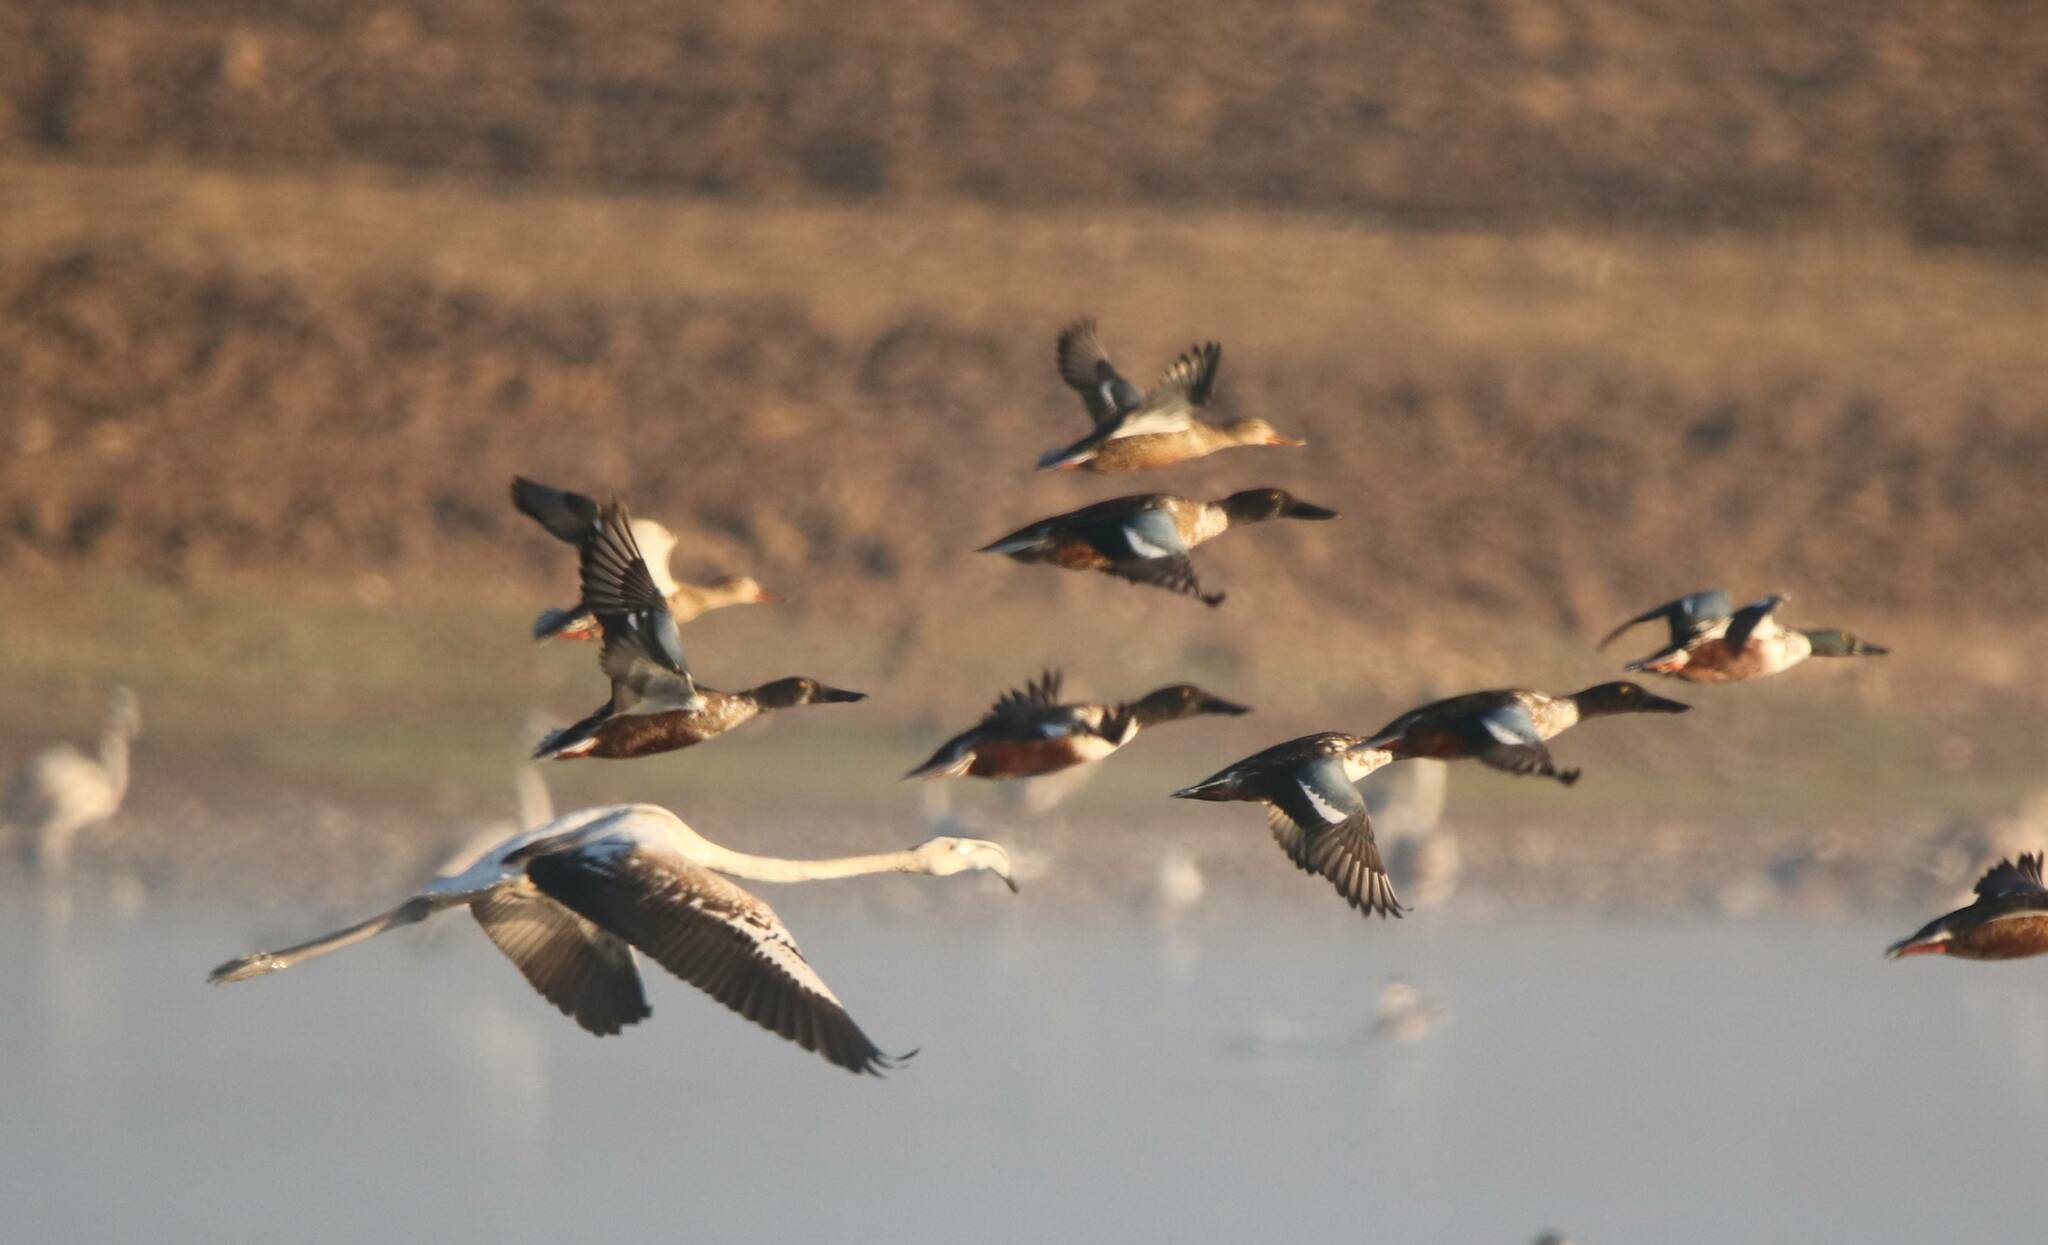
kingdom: Animalia
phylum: Chordata
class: Aves
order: Phoenicopteriformes
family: Phoenicopteridae
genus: Phoenicopterus
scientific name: Phoenicopterus roseus
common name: Greater flamingo
